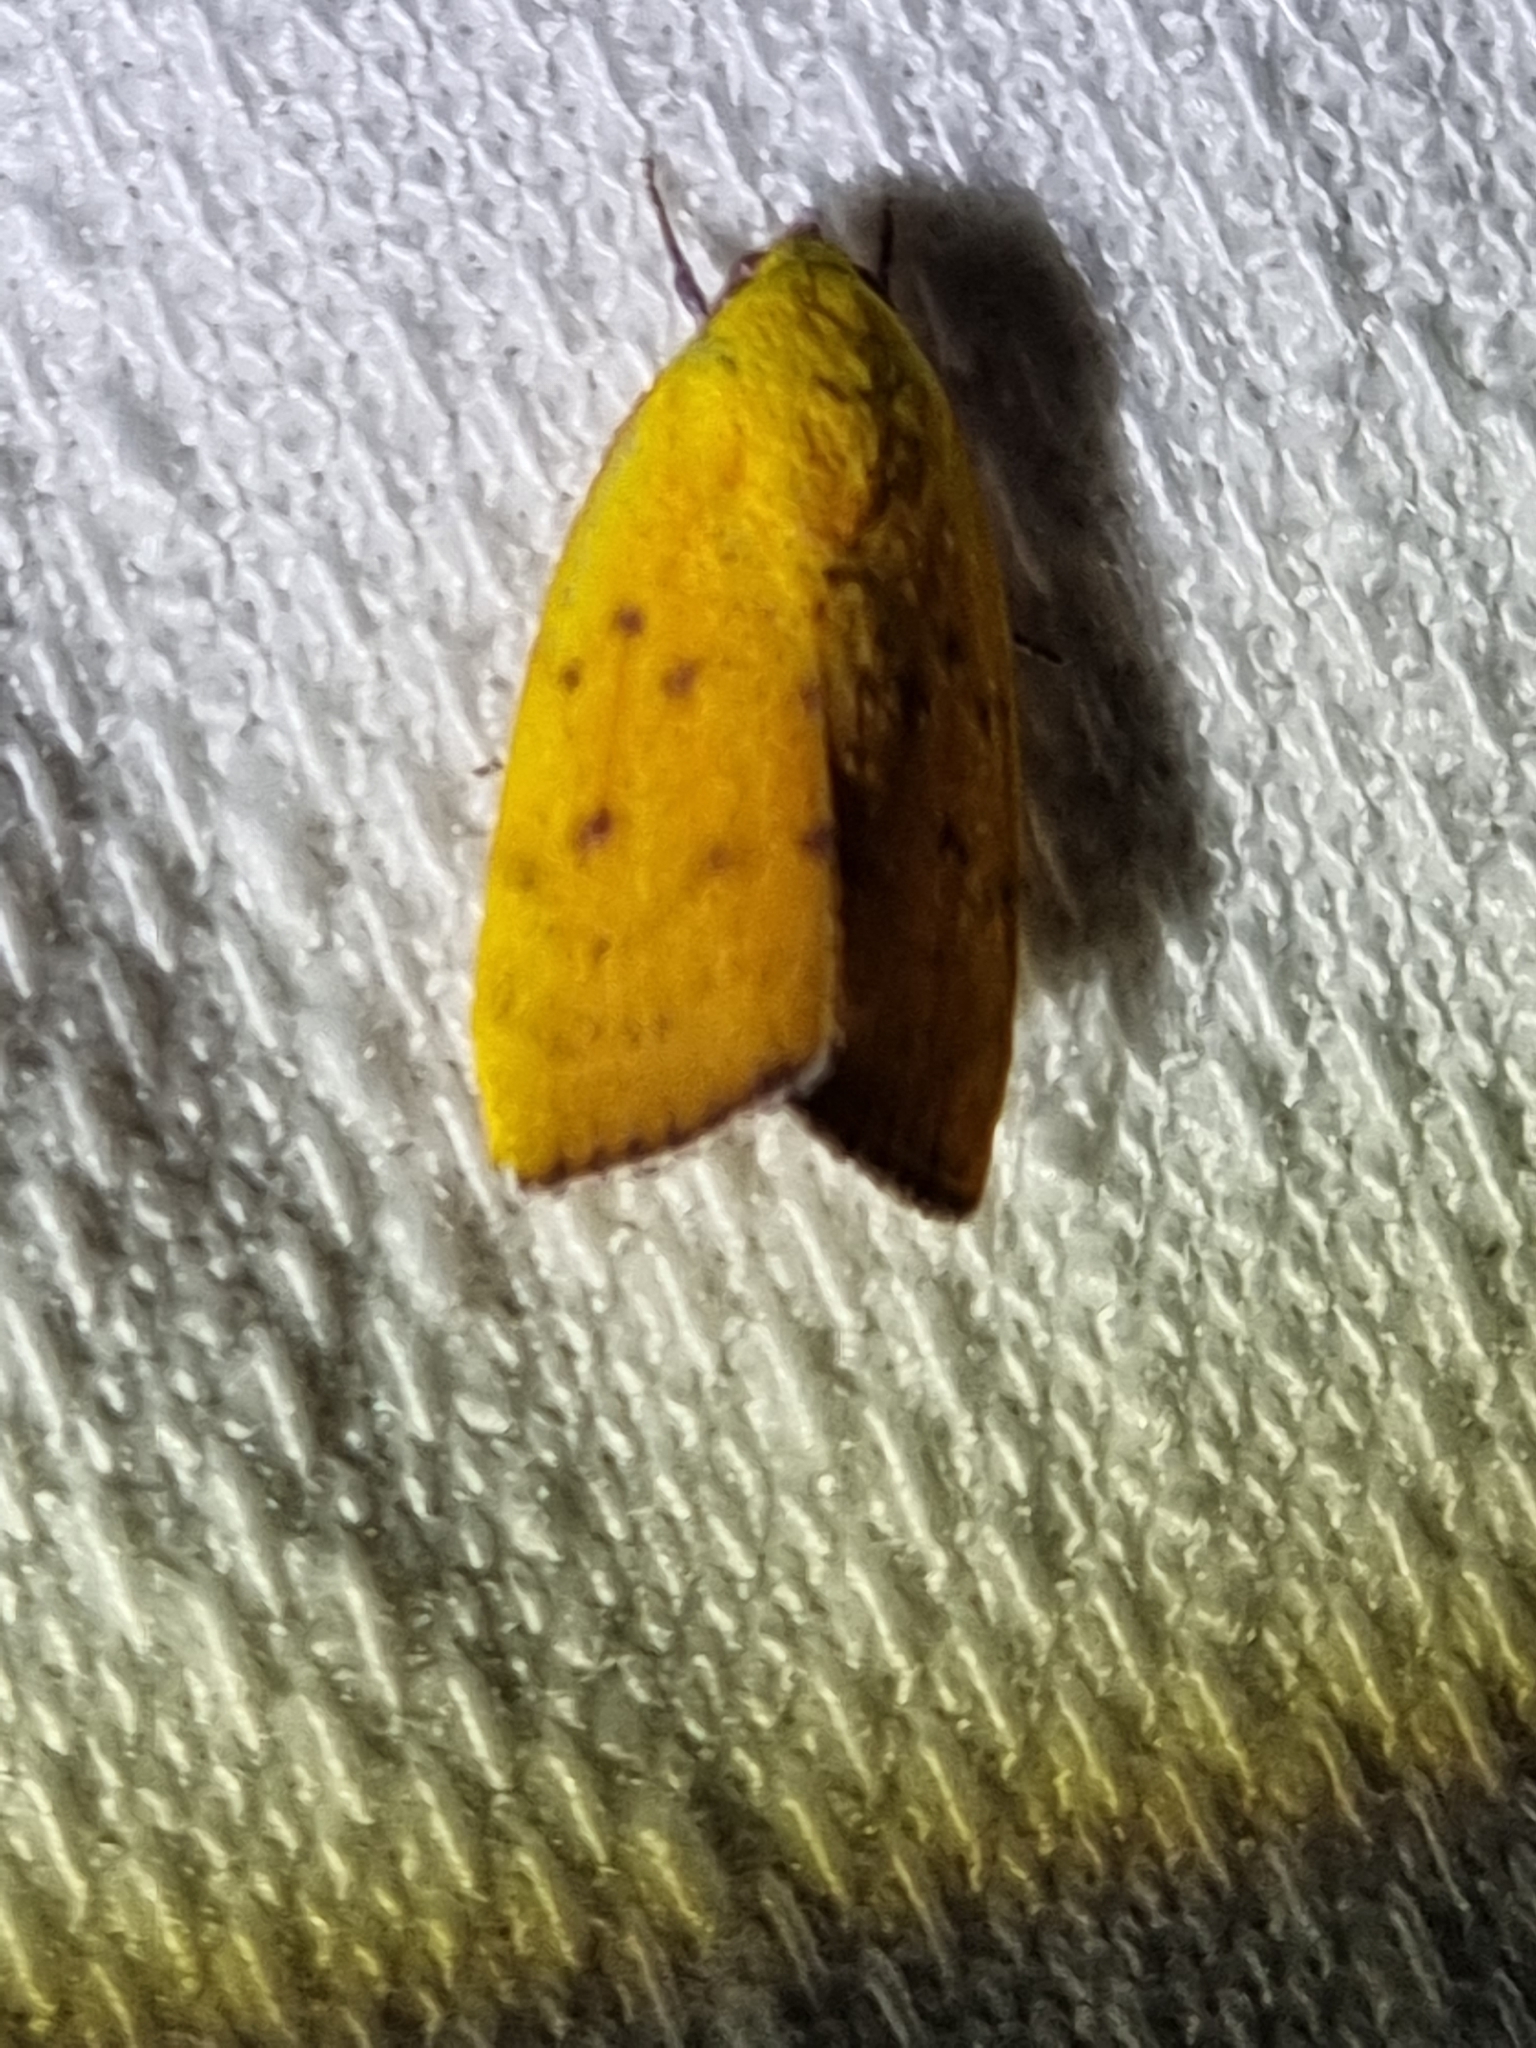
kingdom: Animalia
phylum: Arthropoda
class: Insecta
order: Lepidoptera
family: Nolidae
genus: Earias
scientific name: Earias luteolaria
